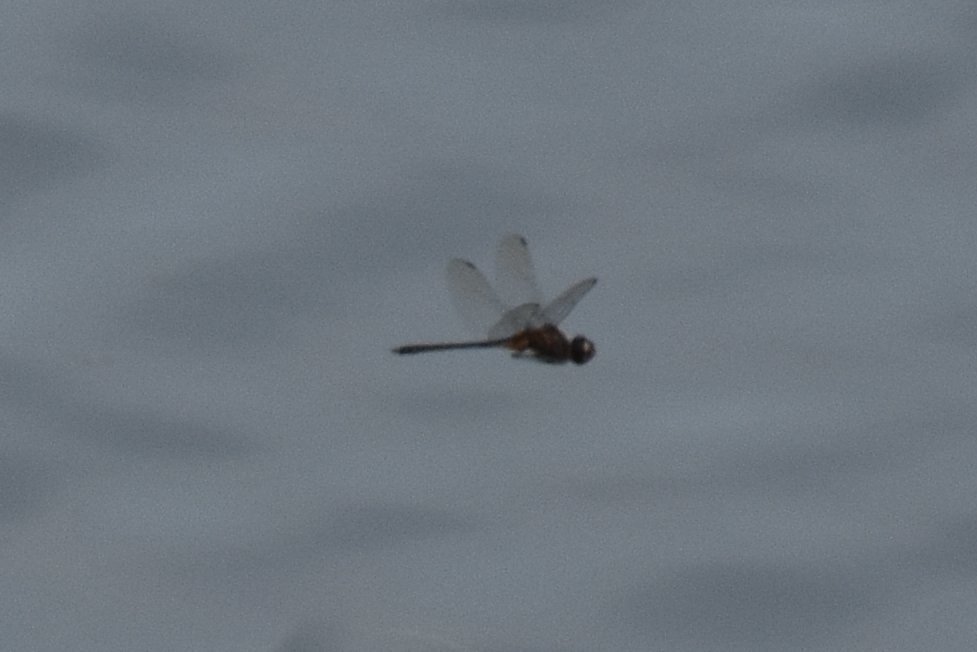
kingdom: Animalia
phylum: Arthropoda
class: Insecta
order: Odonata
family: Libellulidae
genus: Idiataphe
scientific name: Idiataphe cubensis
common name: Metallic pennant
